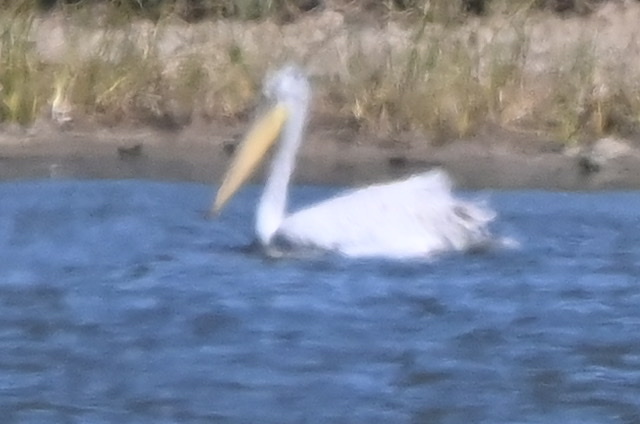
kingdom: Animalia
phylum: Chordata
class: Aves
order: Pelecaniformes
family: Pelecanidae
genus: Pelecanus
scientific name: Pelecanus crispus
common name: Dalmatian pelican
